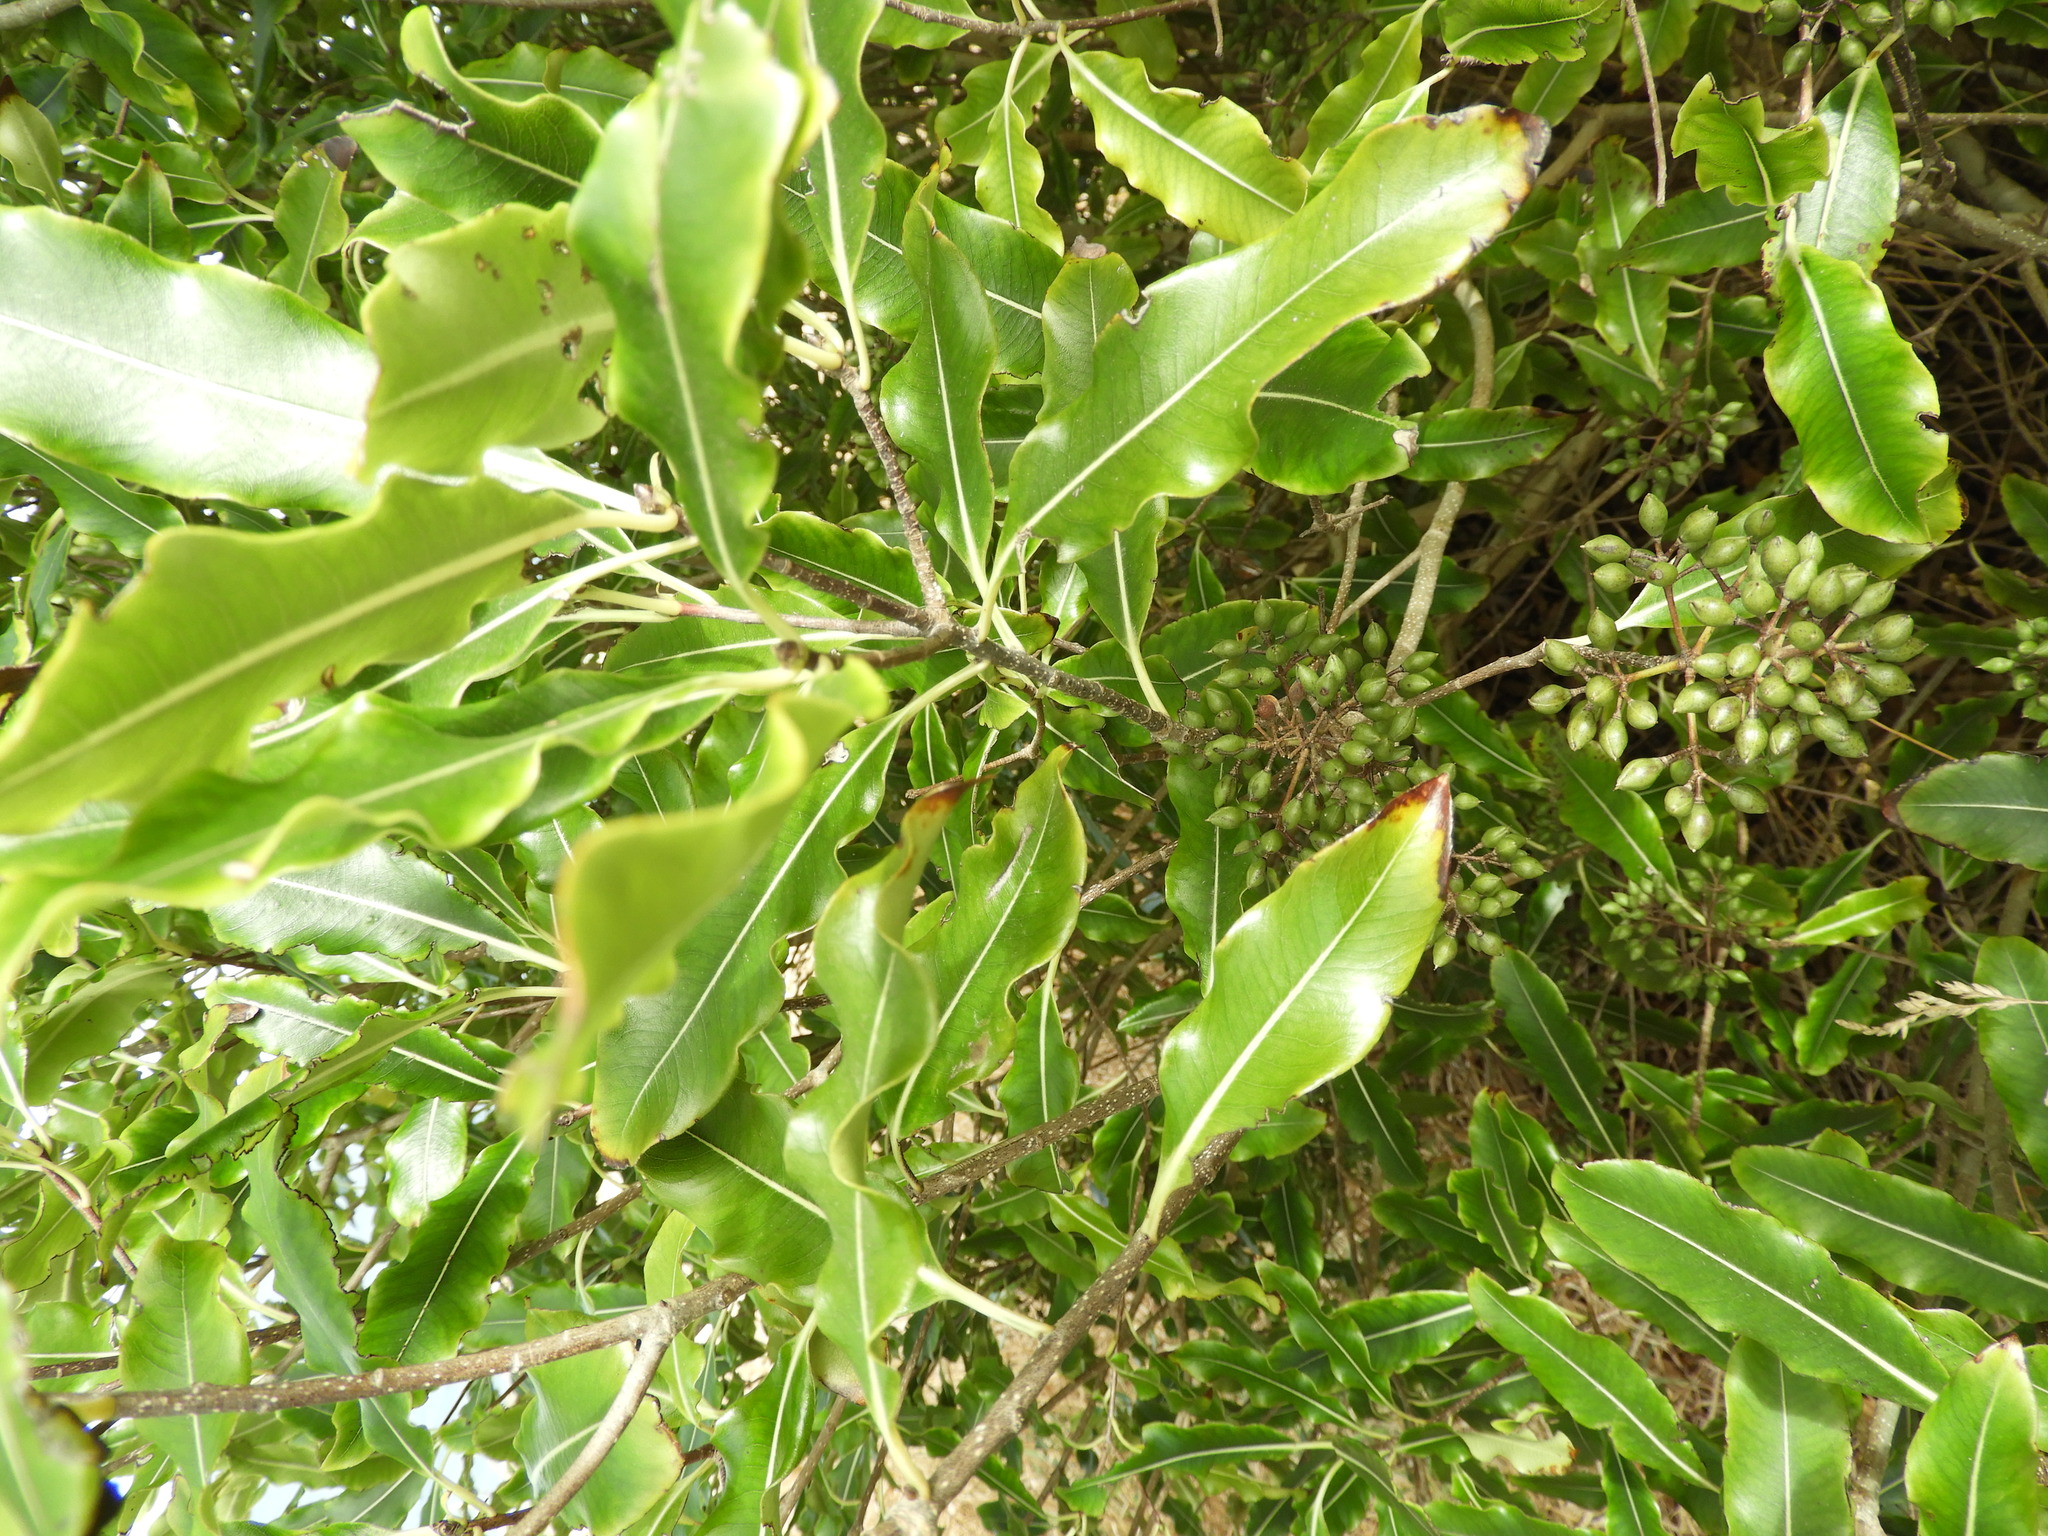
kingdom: Plantae
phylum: Tracheophyta
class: Magnoliopsida
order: Apiales
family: Pittosporaceae
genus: Pittosporum
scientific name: Pittosporum eugenioides
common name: Lemonwood
